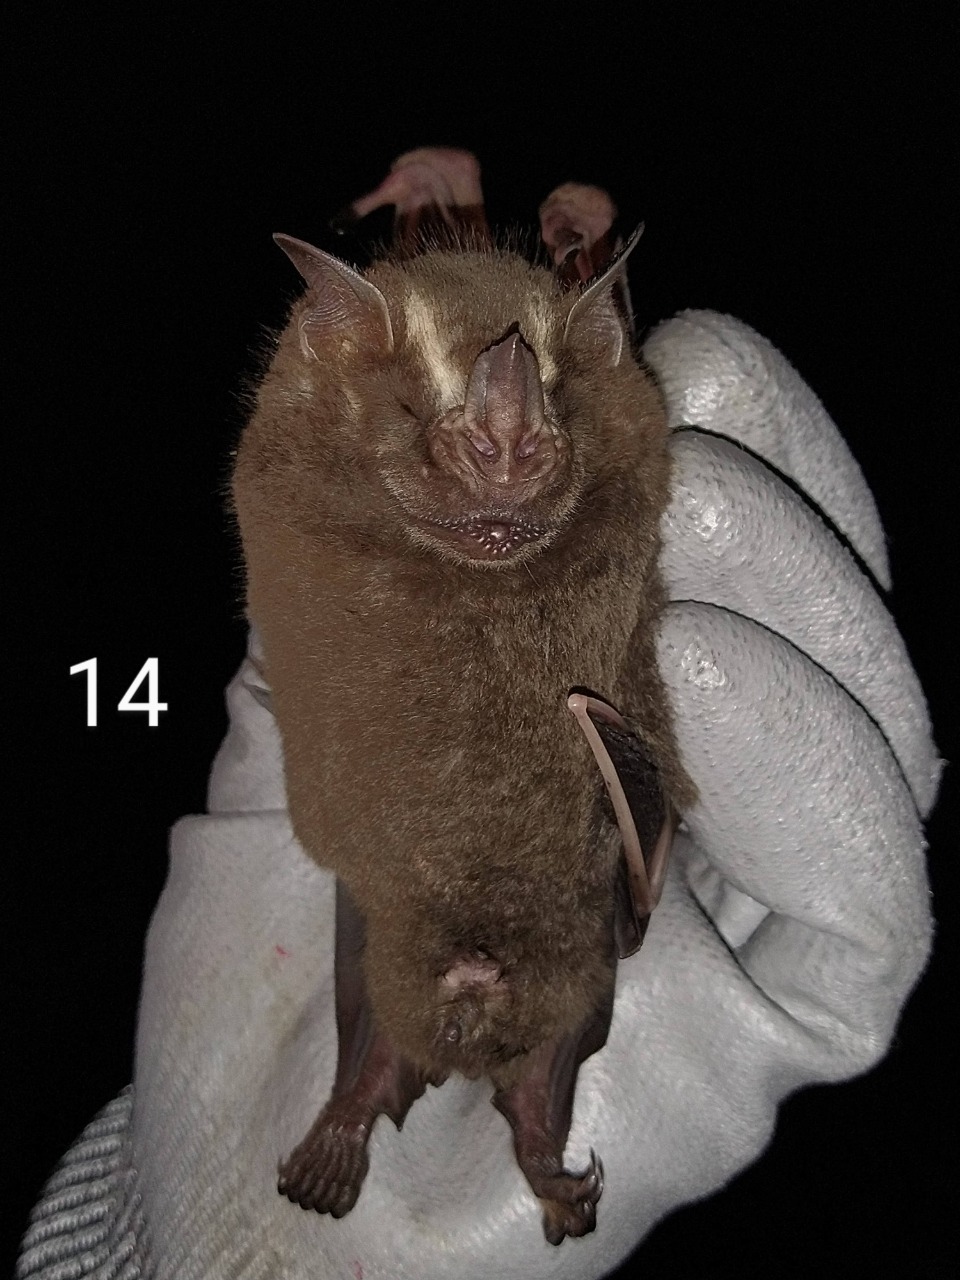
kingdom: Animalia
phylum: Chordata
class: Mammalia
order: Chiroptera
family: Phyllostomidae
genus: Artibeus
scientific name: Artibeus lituratus
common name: Great fruit-eating bat
